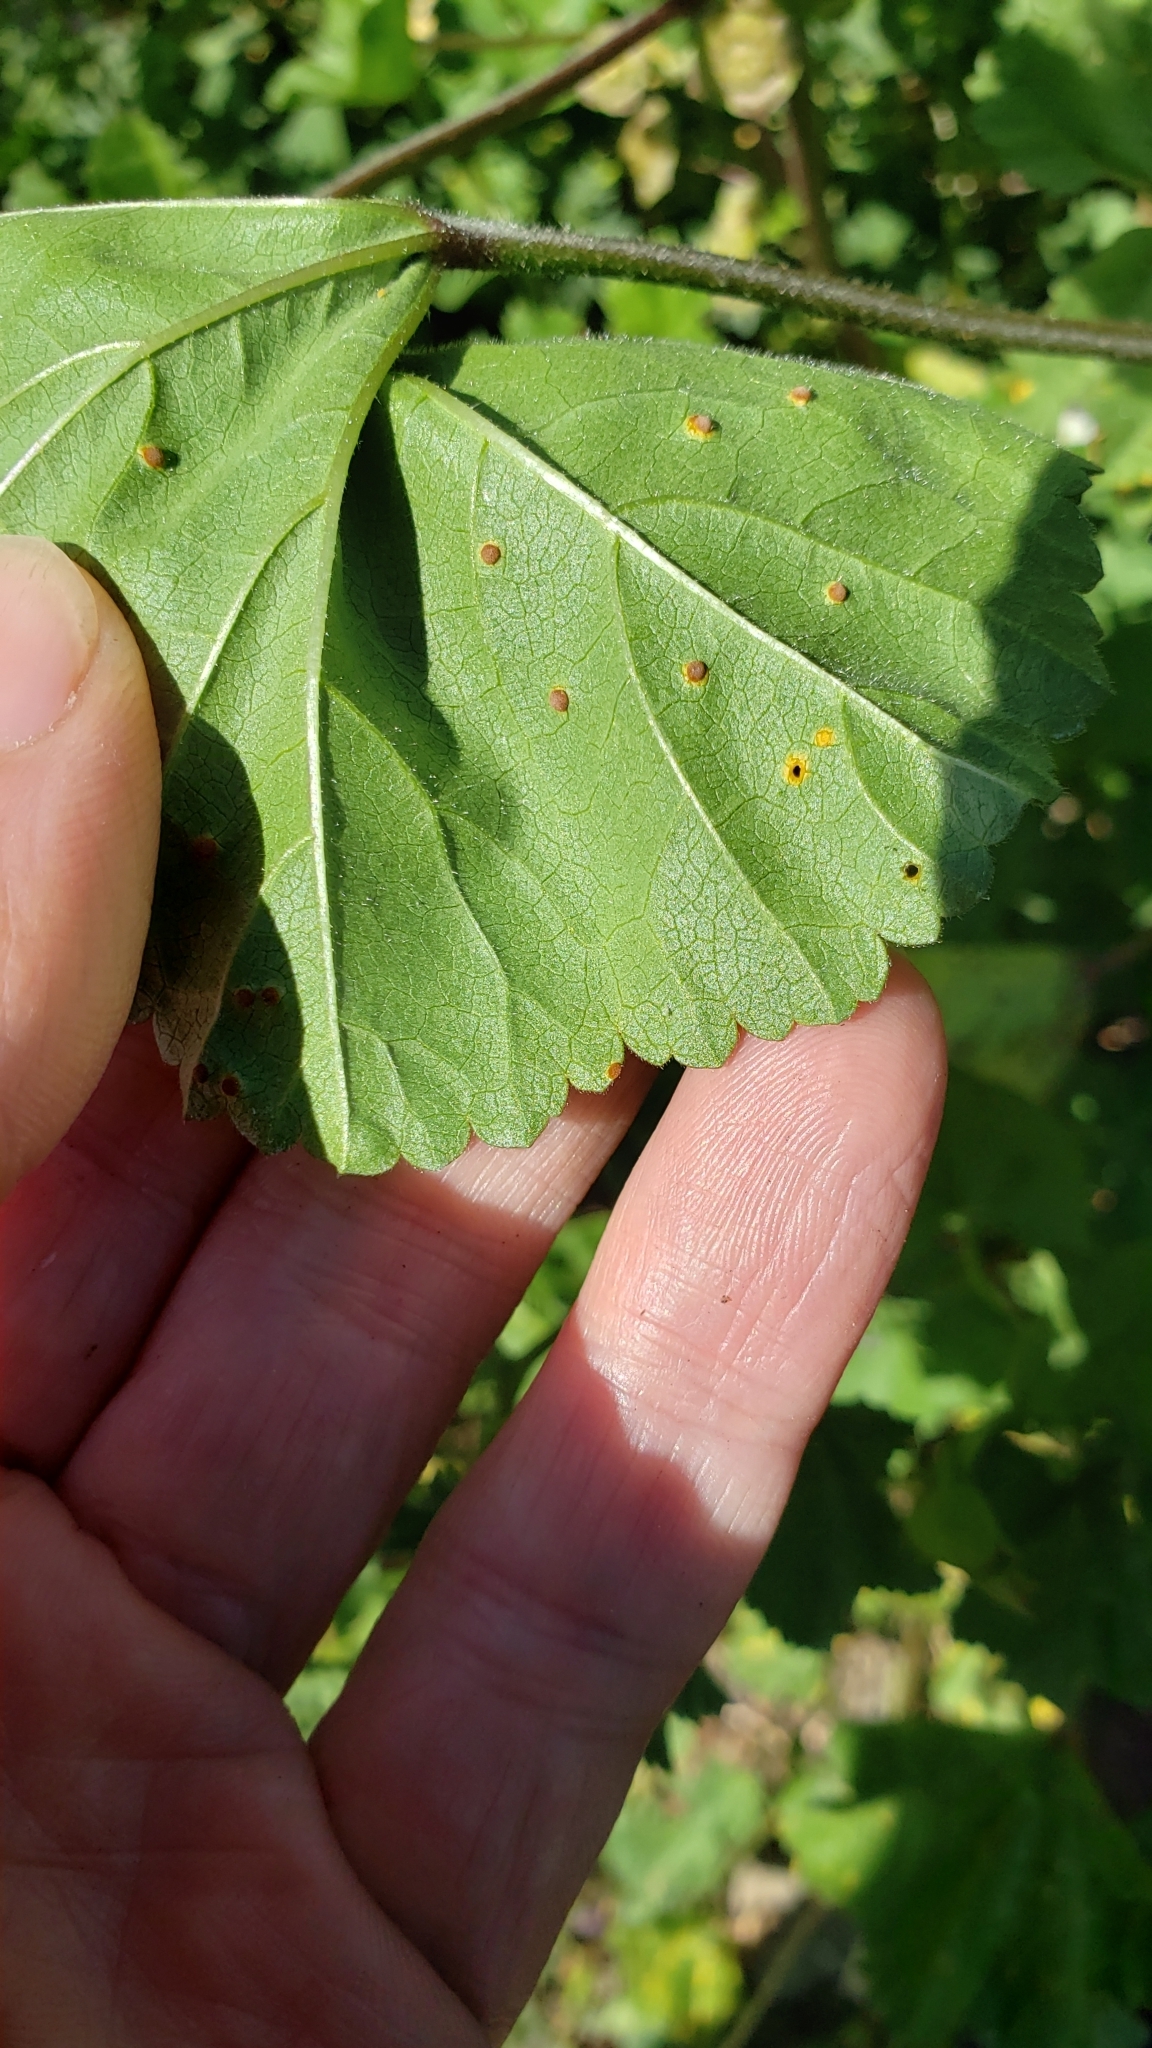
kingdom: Fungi
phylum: Basidiomycota
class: Pucciniomycetes
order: Pucciniales
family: Pucciniaceae
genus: Puccinia
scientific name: Puccinia malvacearum
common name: Hollyhock rust
